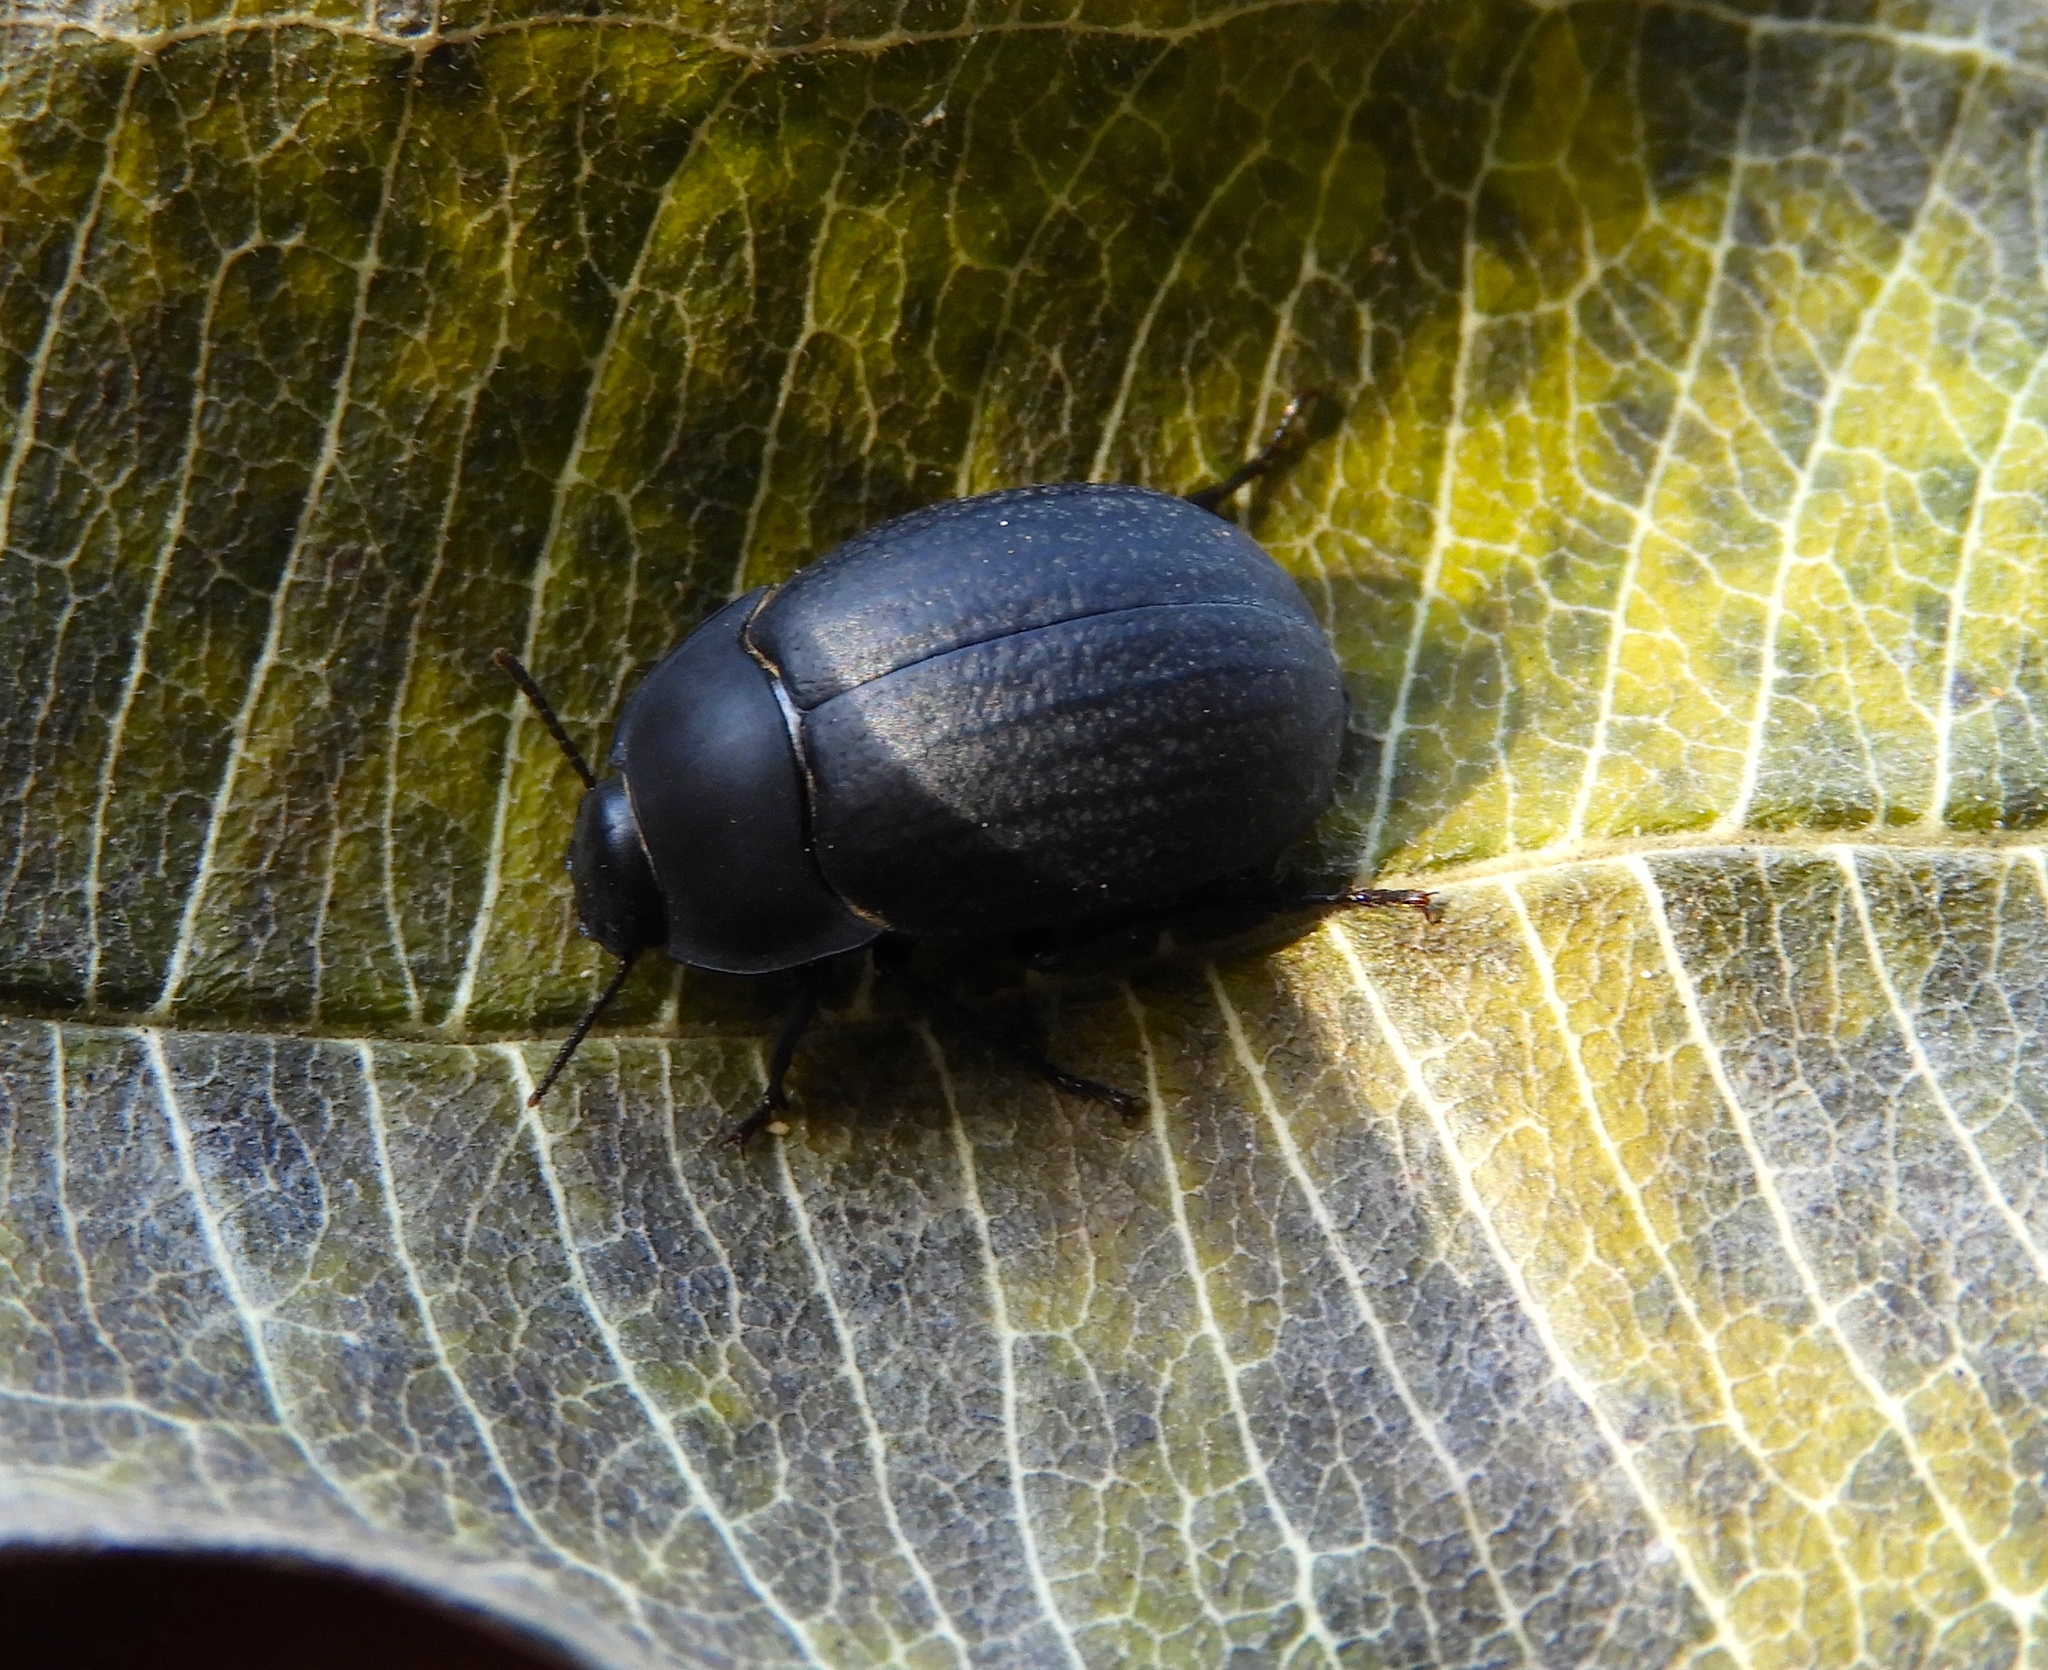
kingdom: Animalia
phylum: Arthropoda
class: Insecta
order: Coleoptera
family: Tenebrionidae
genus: Eusattus
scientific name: Eusattus
